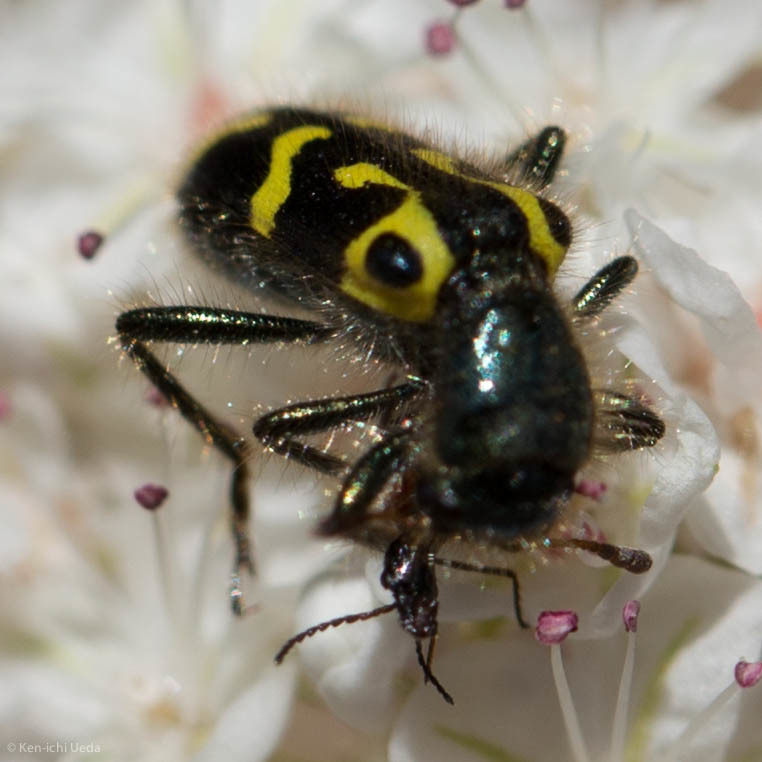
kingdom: Animalia
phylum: Arthropoda
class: Insecta
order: Coleoptera
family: Cleridae
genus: Trichodes
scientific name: Trichodes ornatus
